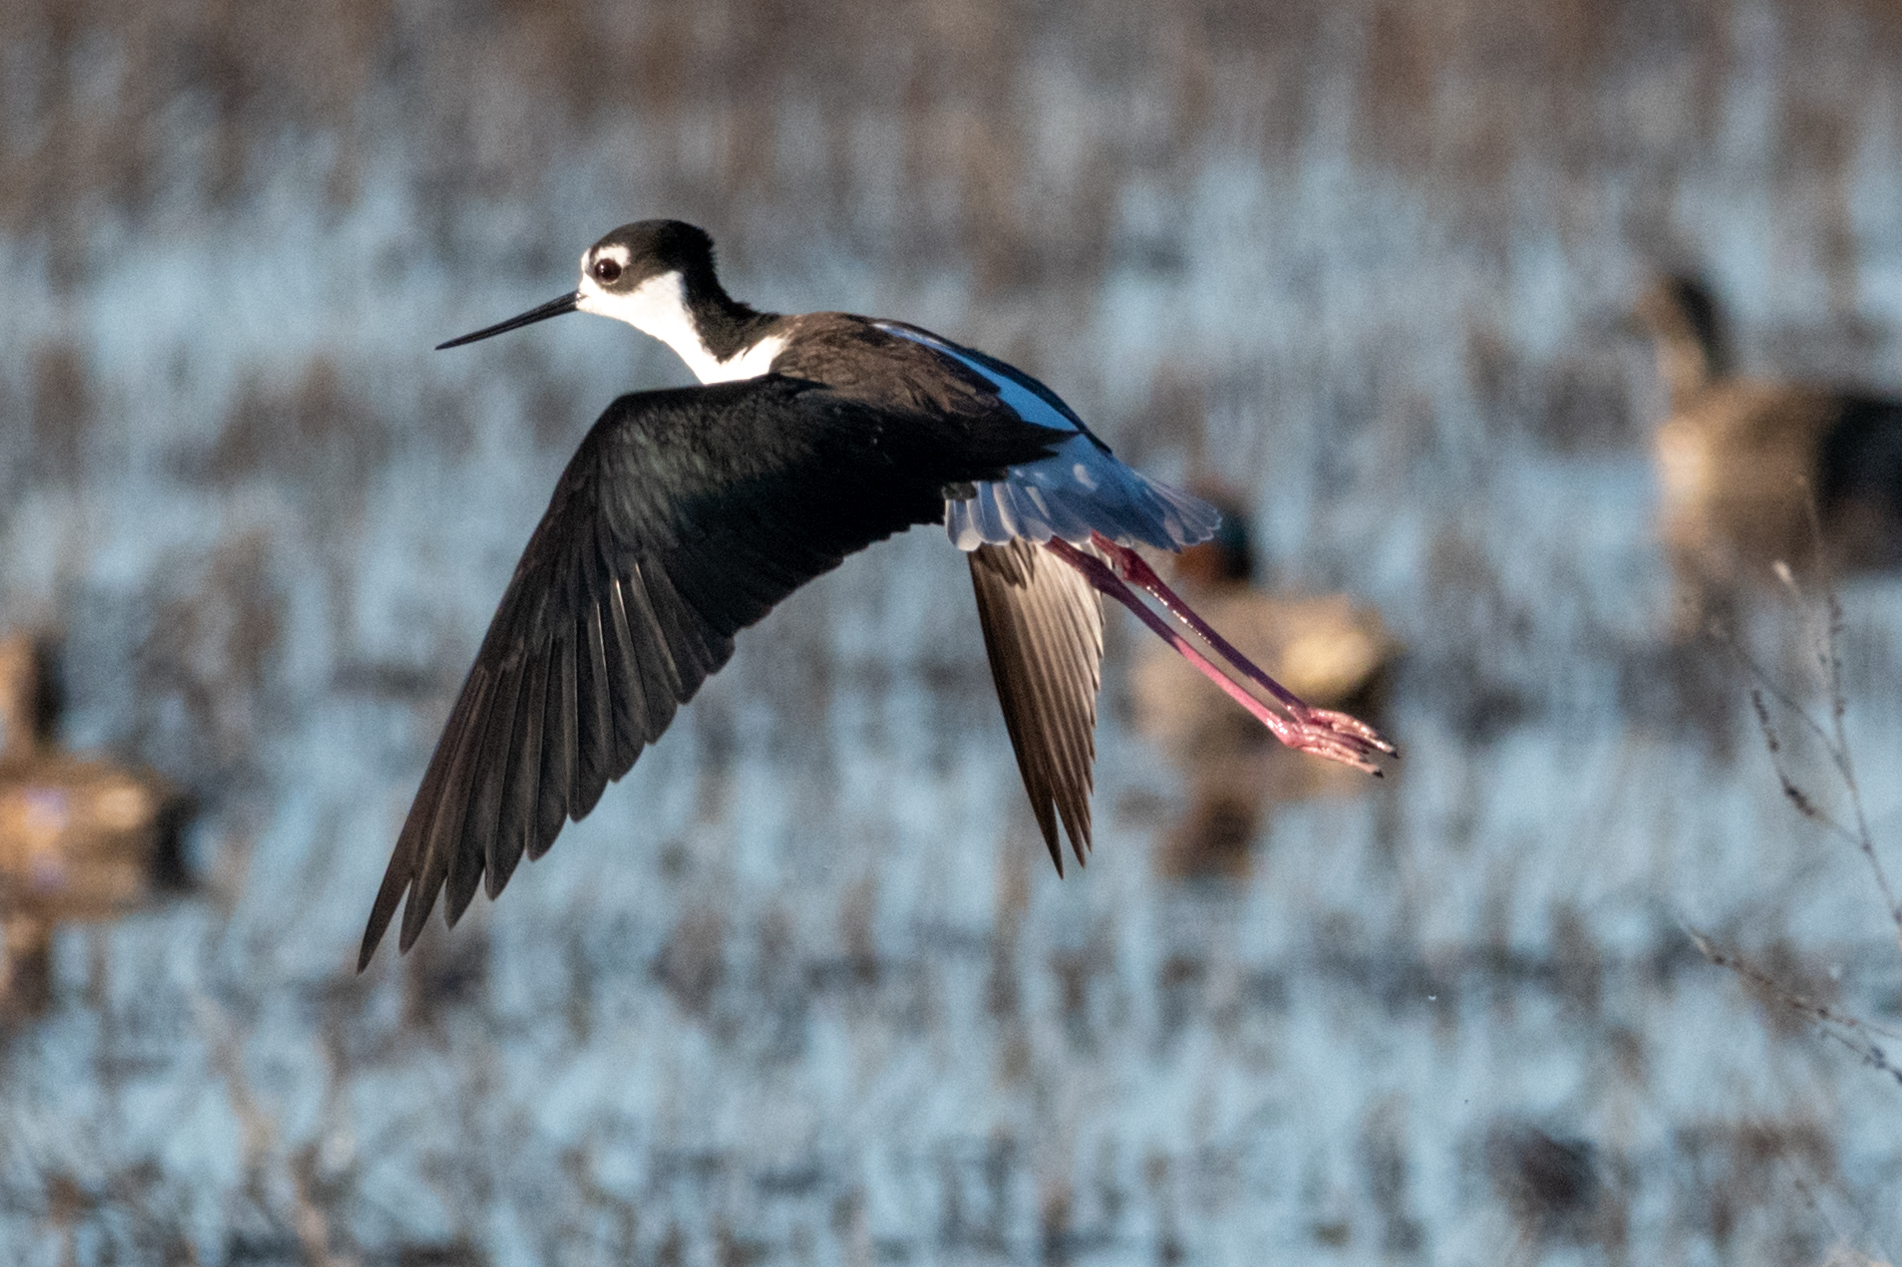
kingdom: Animalia
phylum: Chordata
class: Aves
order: Charadriiformes
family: Recurvirostridae
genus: Himantopus
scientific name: Himantopus mexicanus
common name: Black-necked stilt
